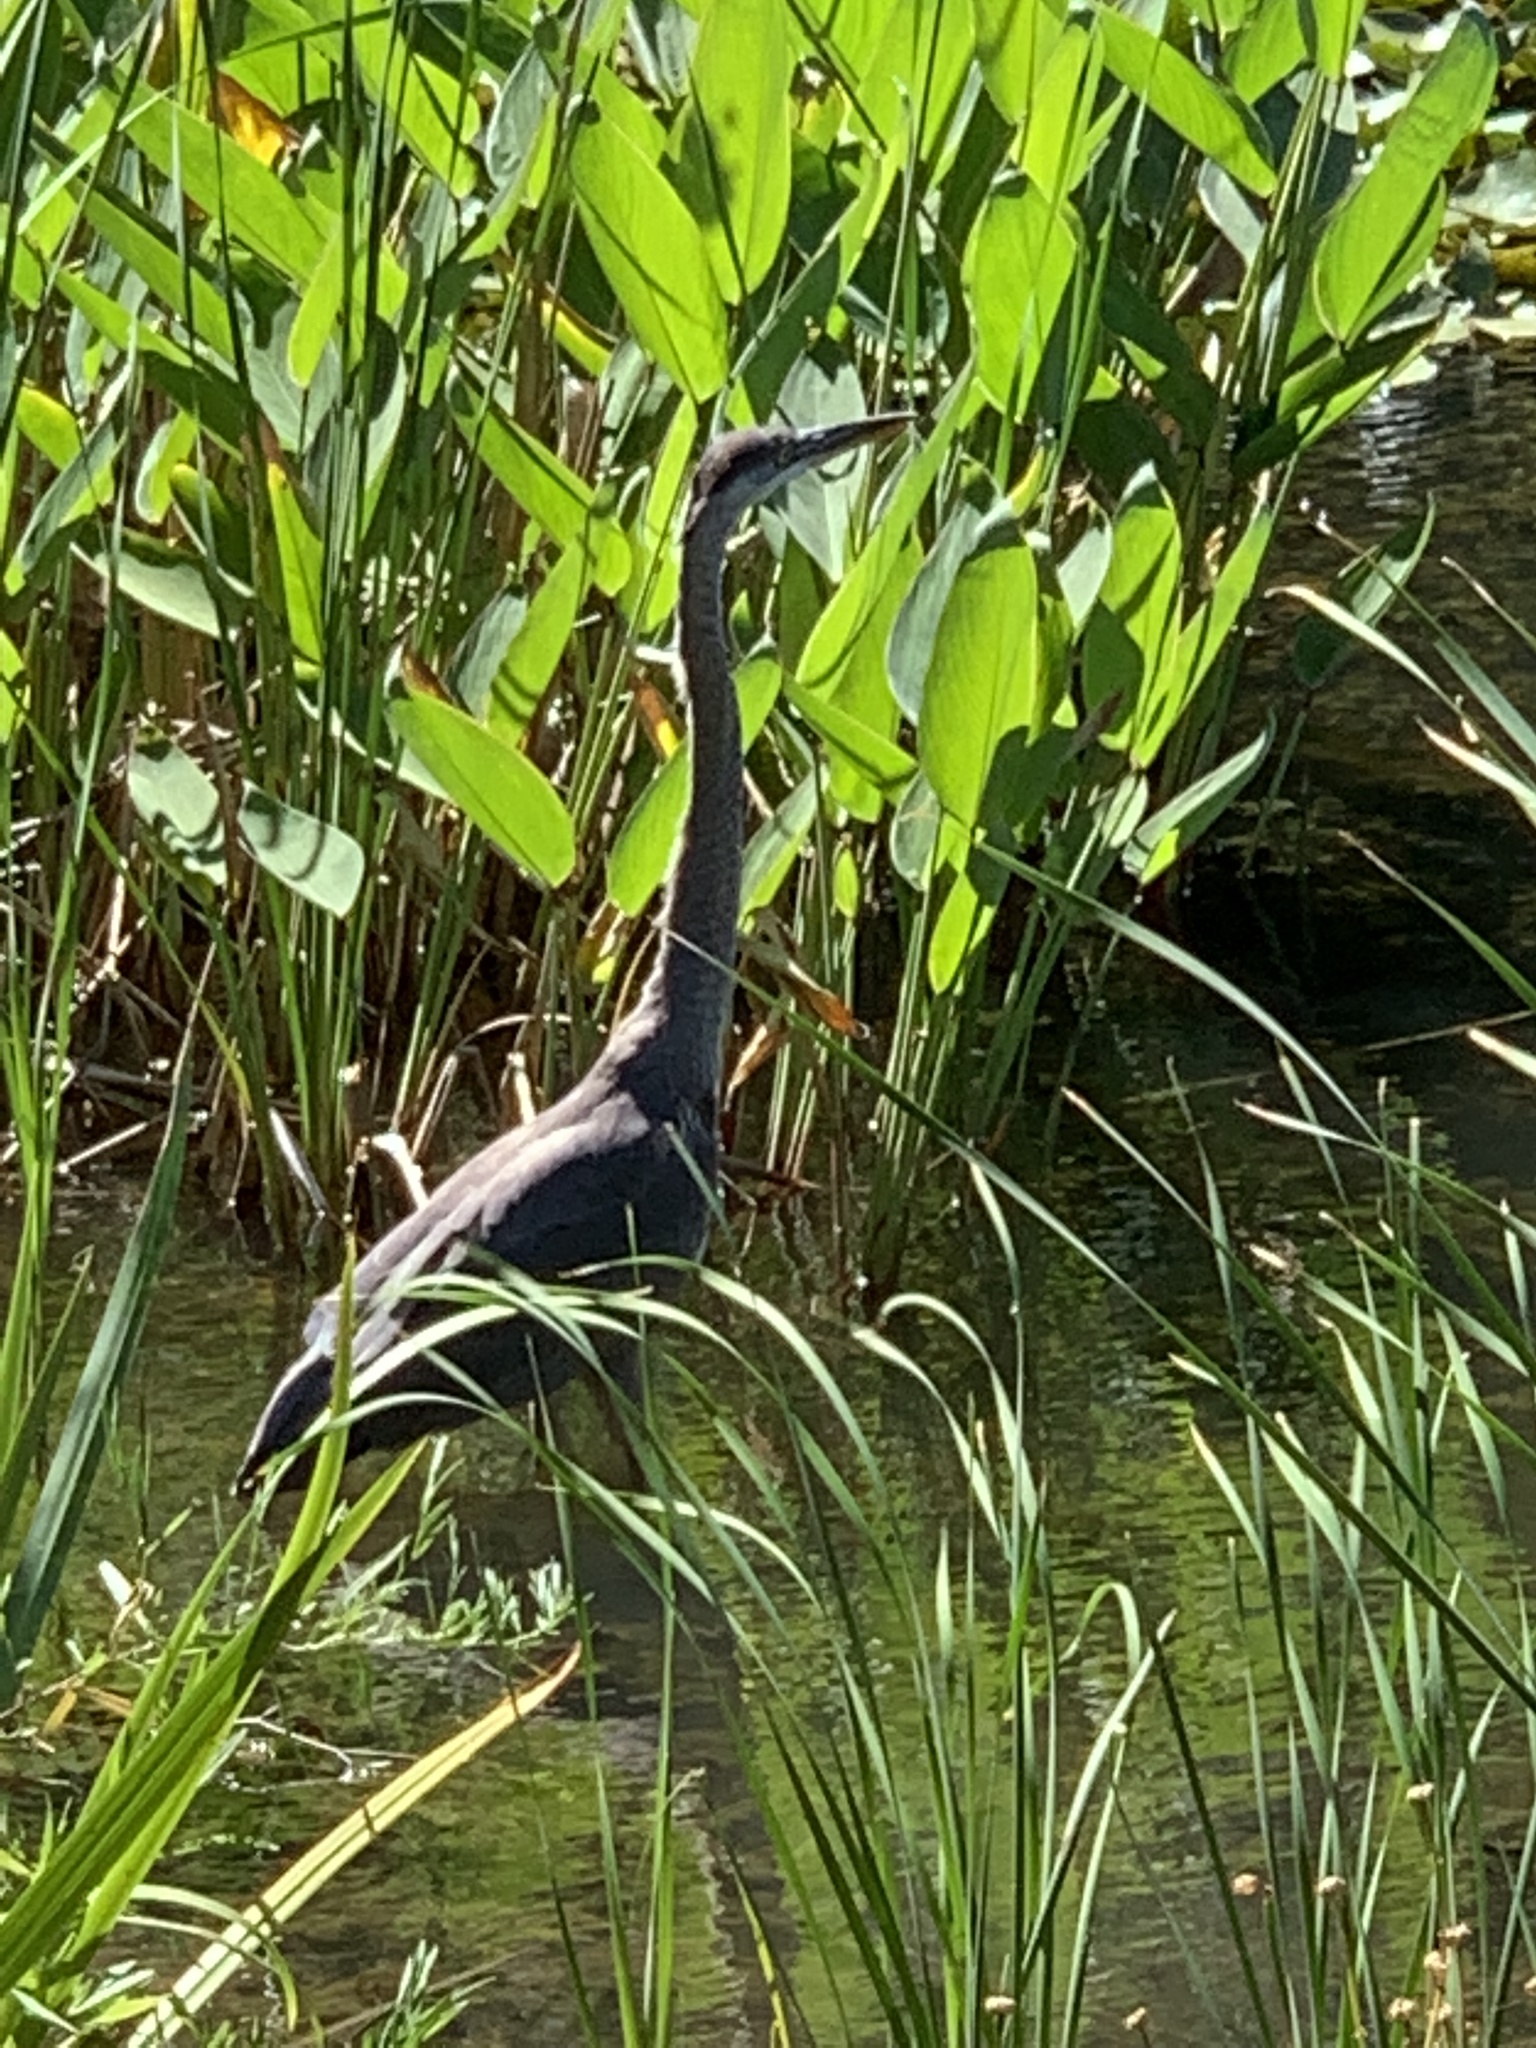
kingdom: Animalia
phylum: Chordata
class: Aves
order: Pelecaniformes
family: Ardeidae
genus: Ardea
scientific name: Ardea herodias
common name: Great blue heron
